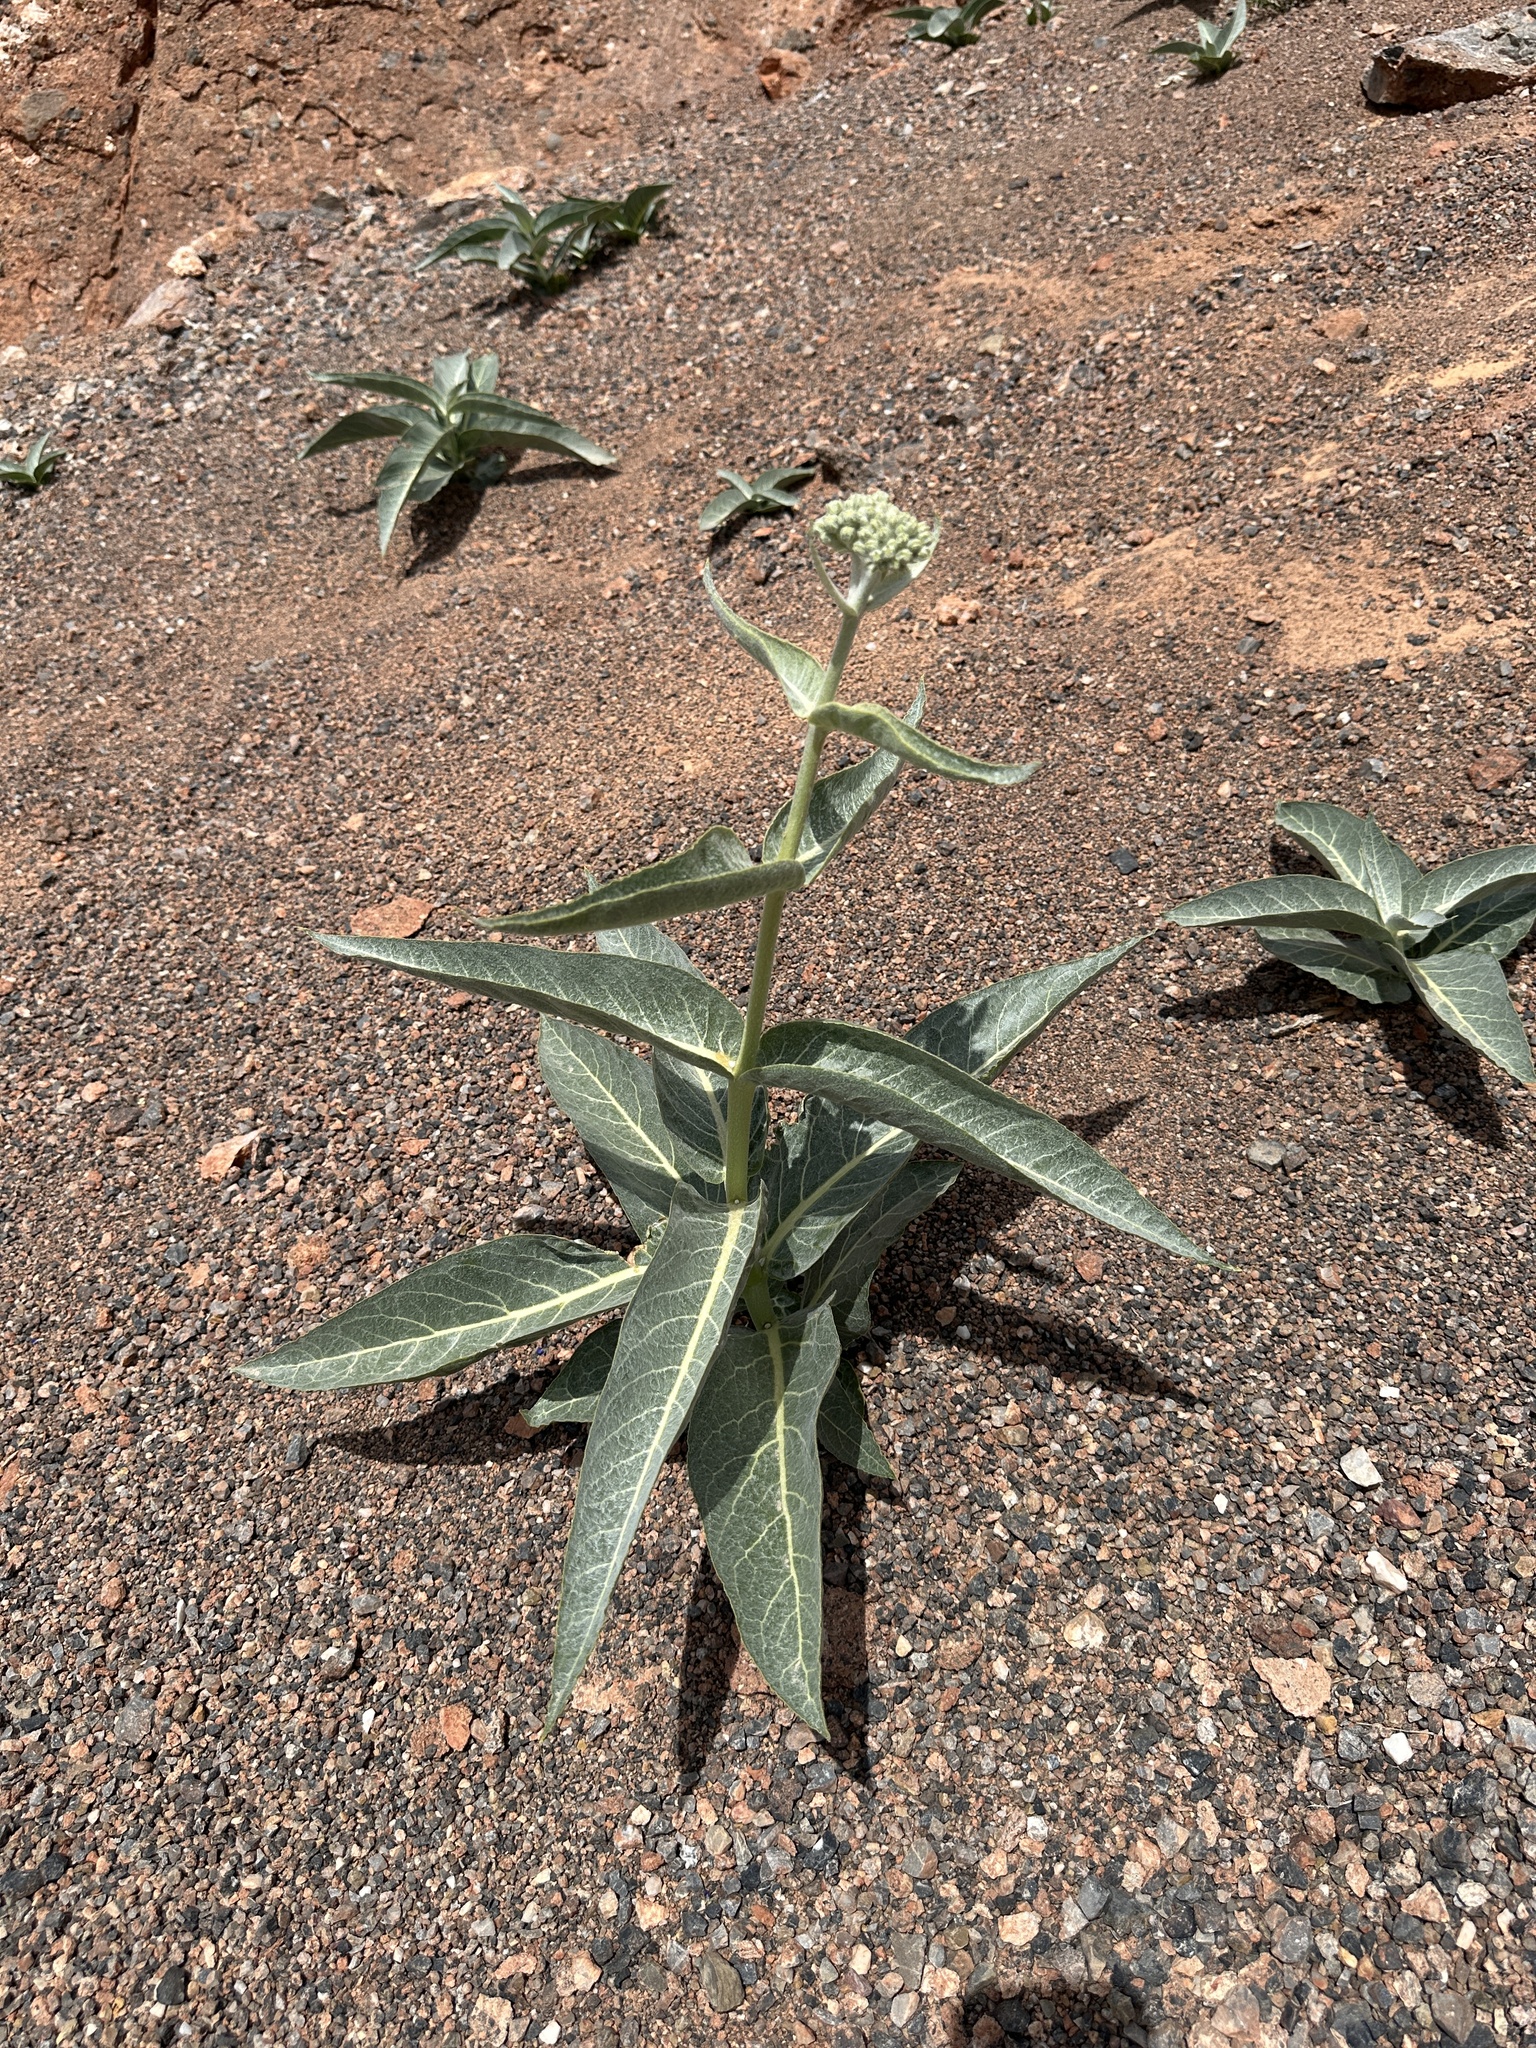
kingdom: Plantae
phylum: Tracheophyta
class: Magnoliopsida
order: Gentianales
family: Apocynaceae
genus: Asclepias
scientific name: Asclepias erosa
